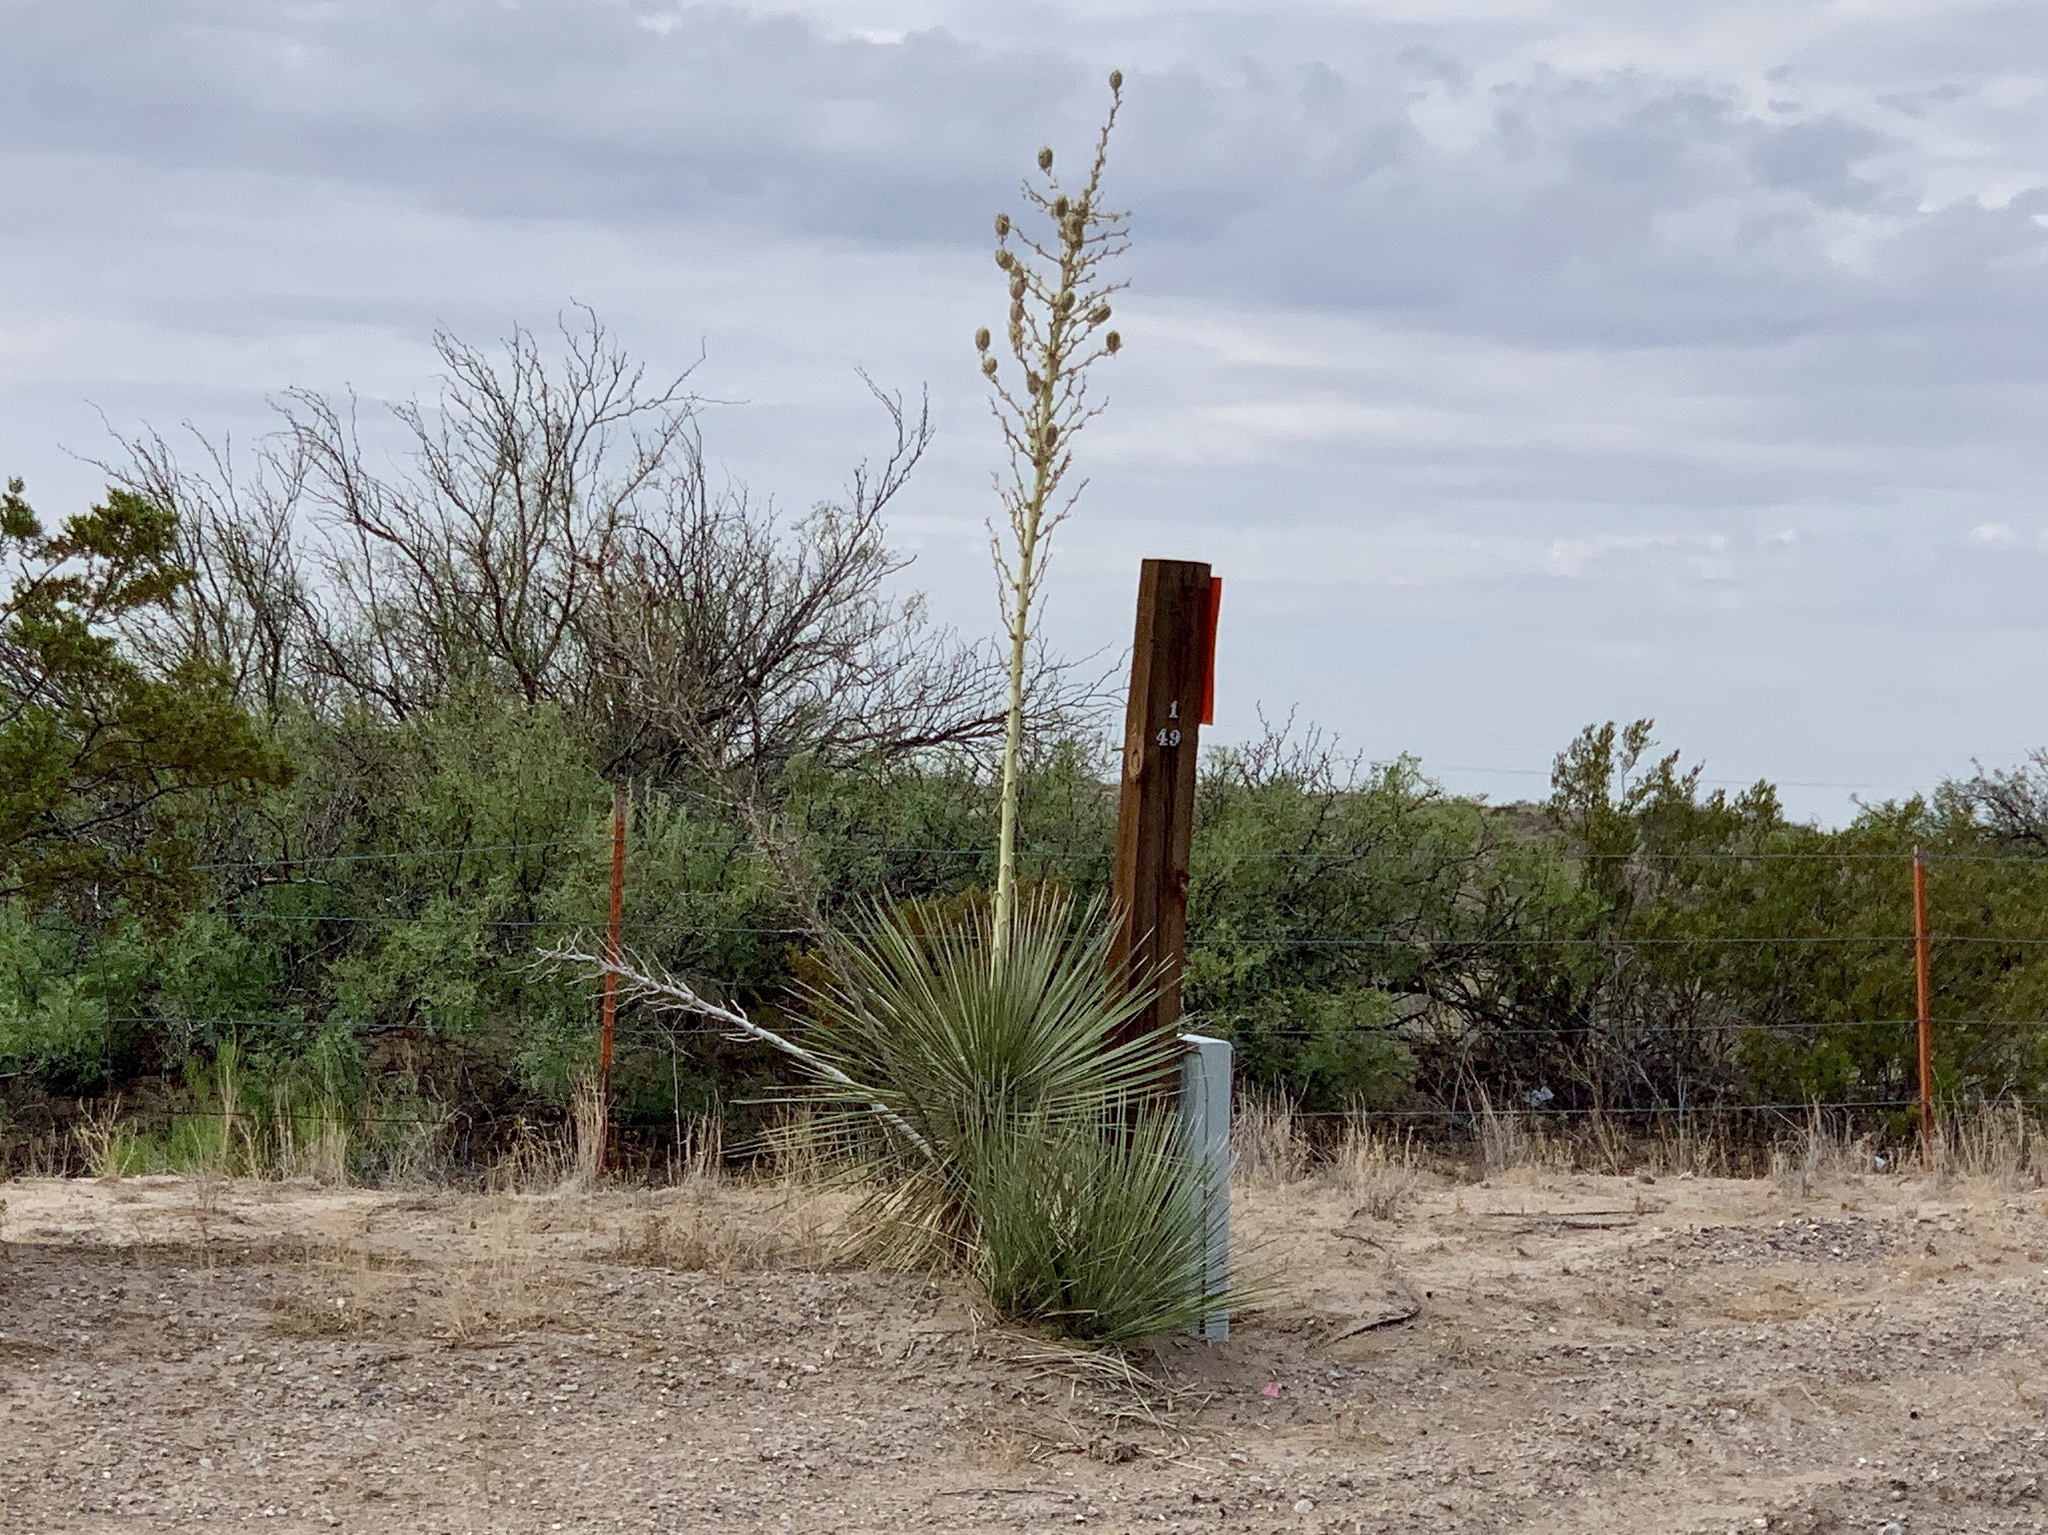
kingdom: Plantae
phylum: Tracheophyta
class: Liliopsida
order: Asparagales
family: Asparagaceae
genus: Yucca
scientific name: Yucca elata
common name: Palmella
